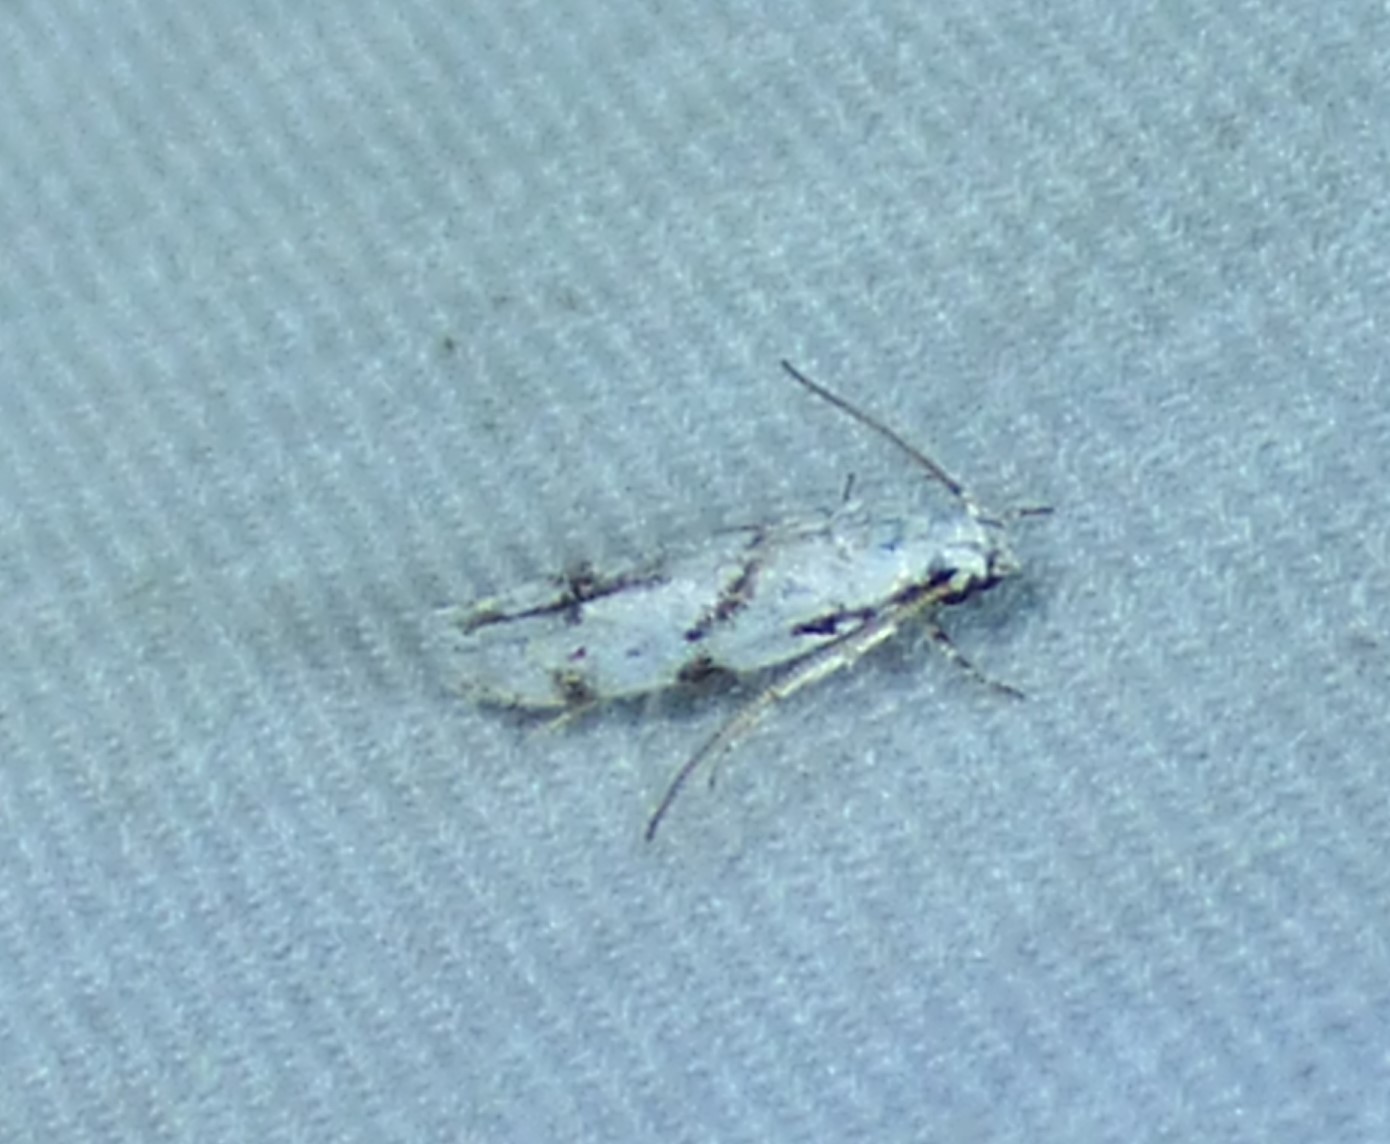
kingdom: Animalia
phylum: Arthropoda
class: Insecta
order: Lepidoptera
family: Gelechiidae
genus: Arogalea
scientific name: Arogalea cristifasciella
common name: White stripe-backed moth
